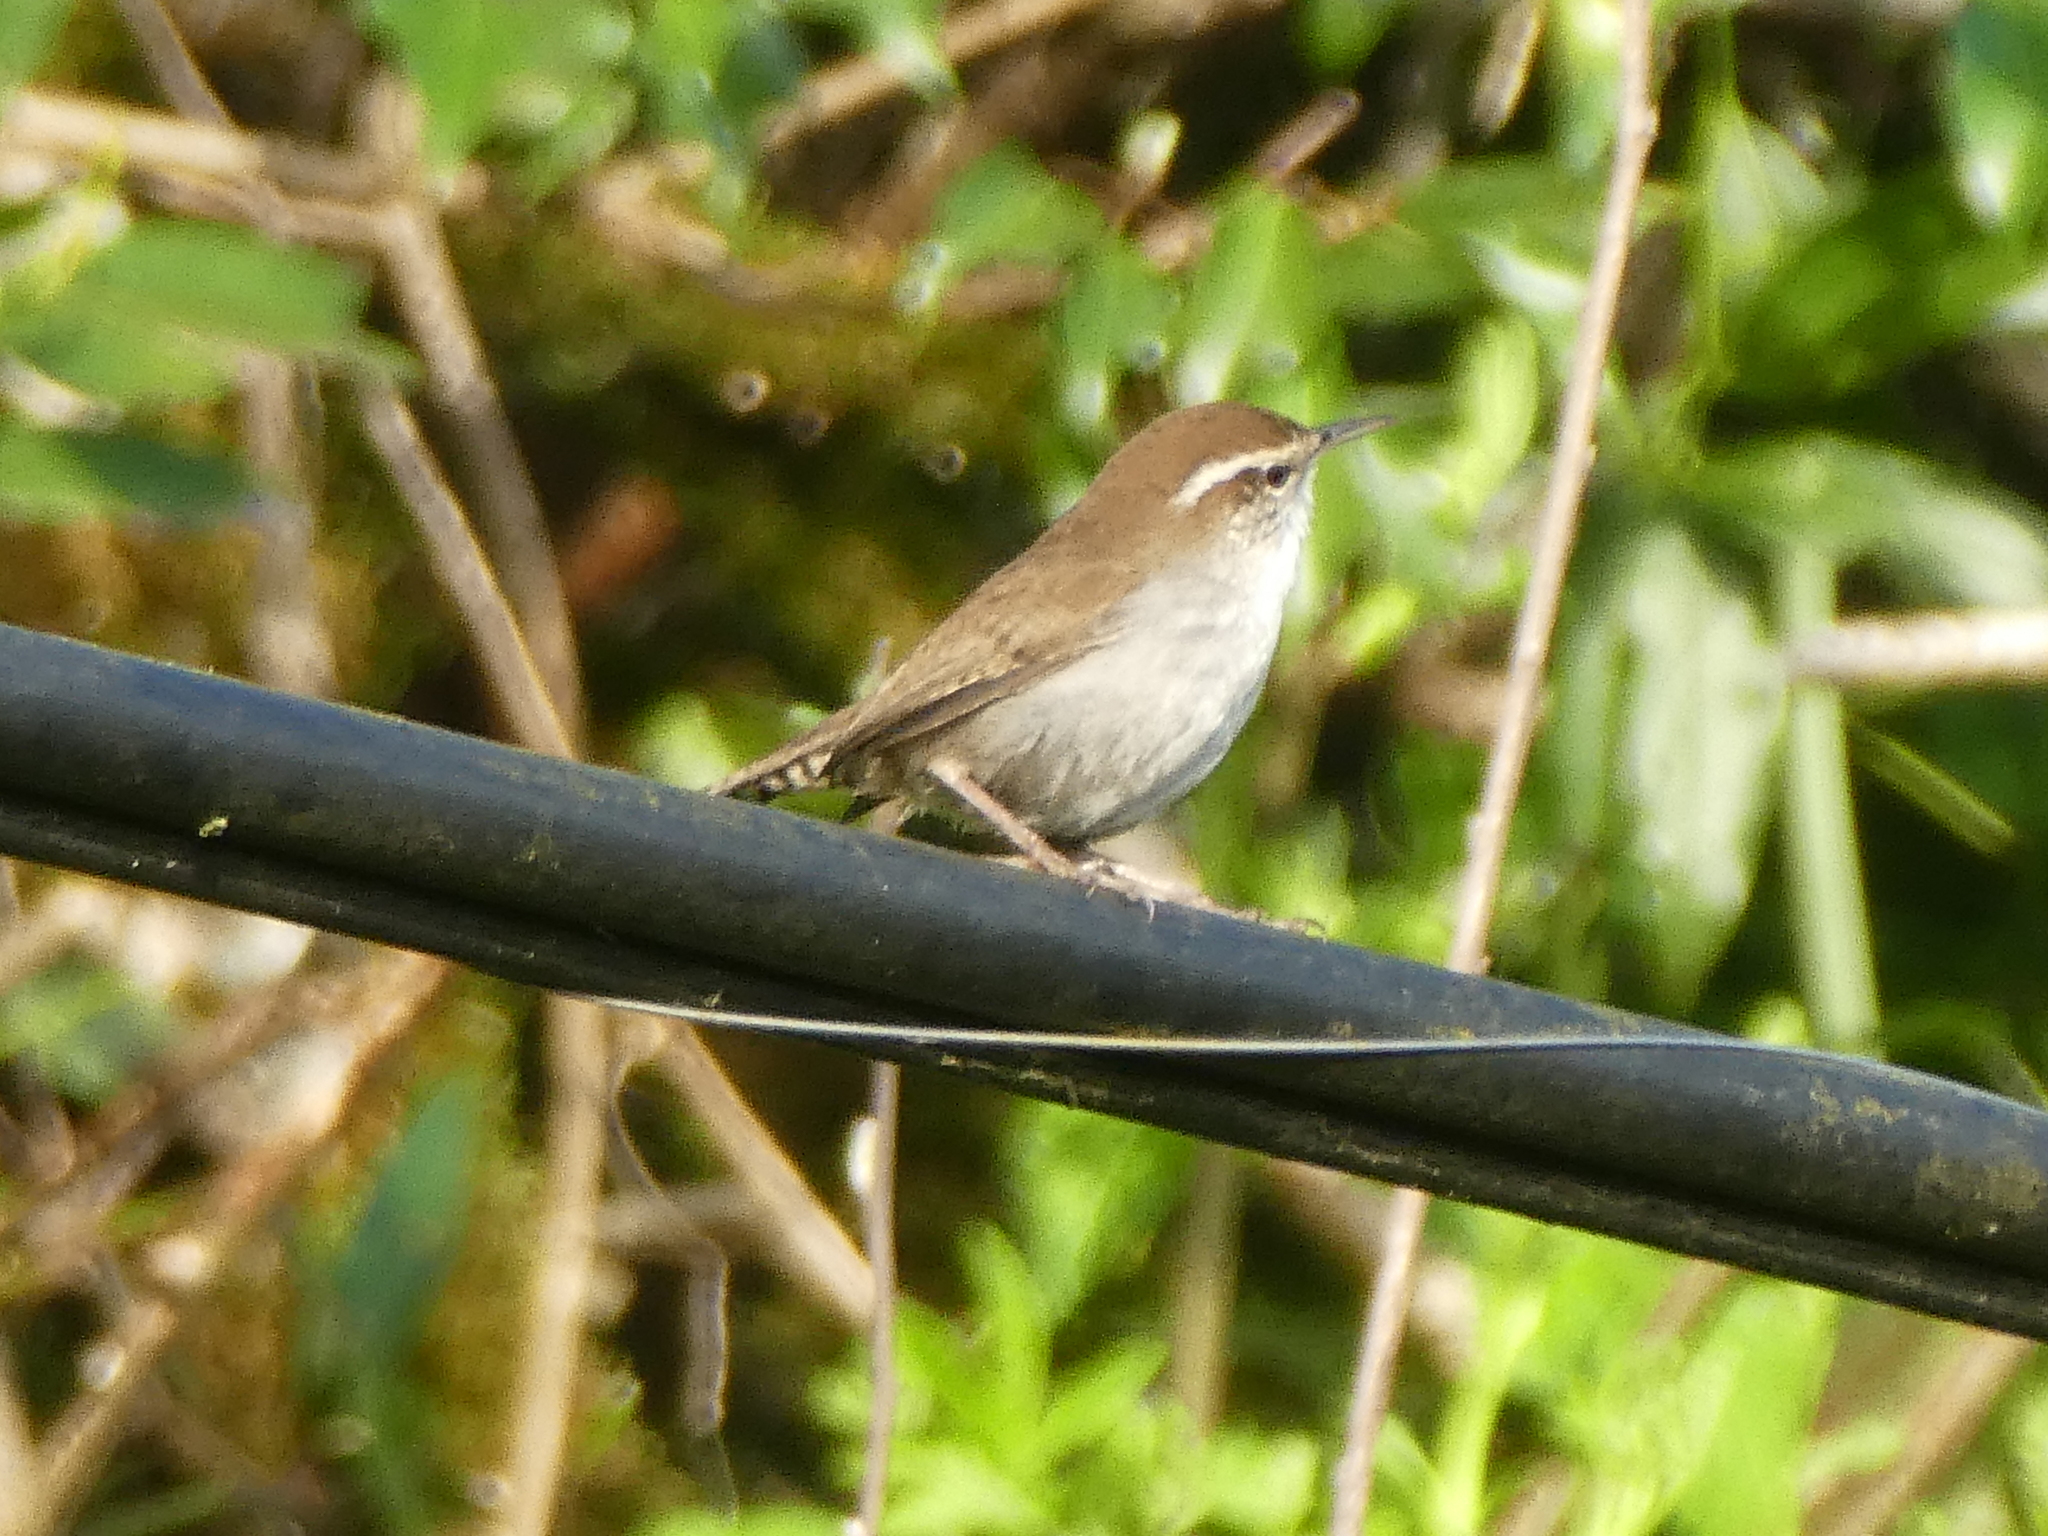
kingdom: Animalia
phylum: Chordata
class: Aves
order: Passeriformes
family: Troglodytidae
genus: Thryomanes
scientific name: Thryomanes bewickii
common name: Bewick's wren
